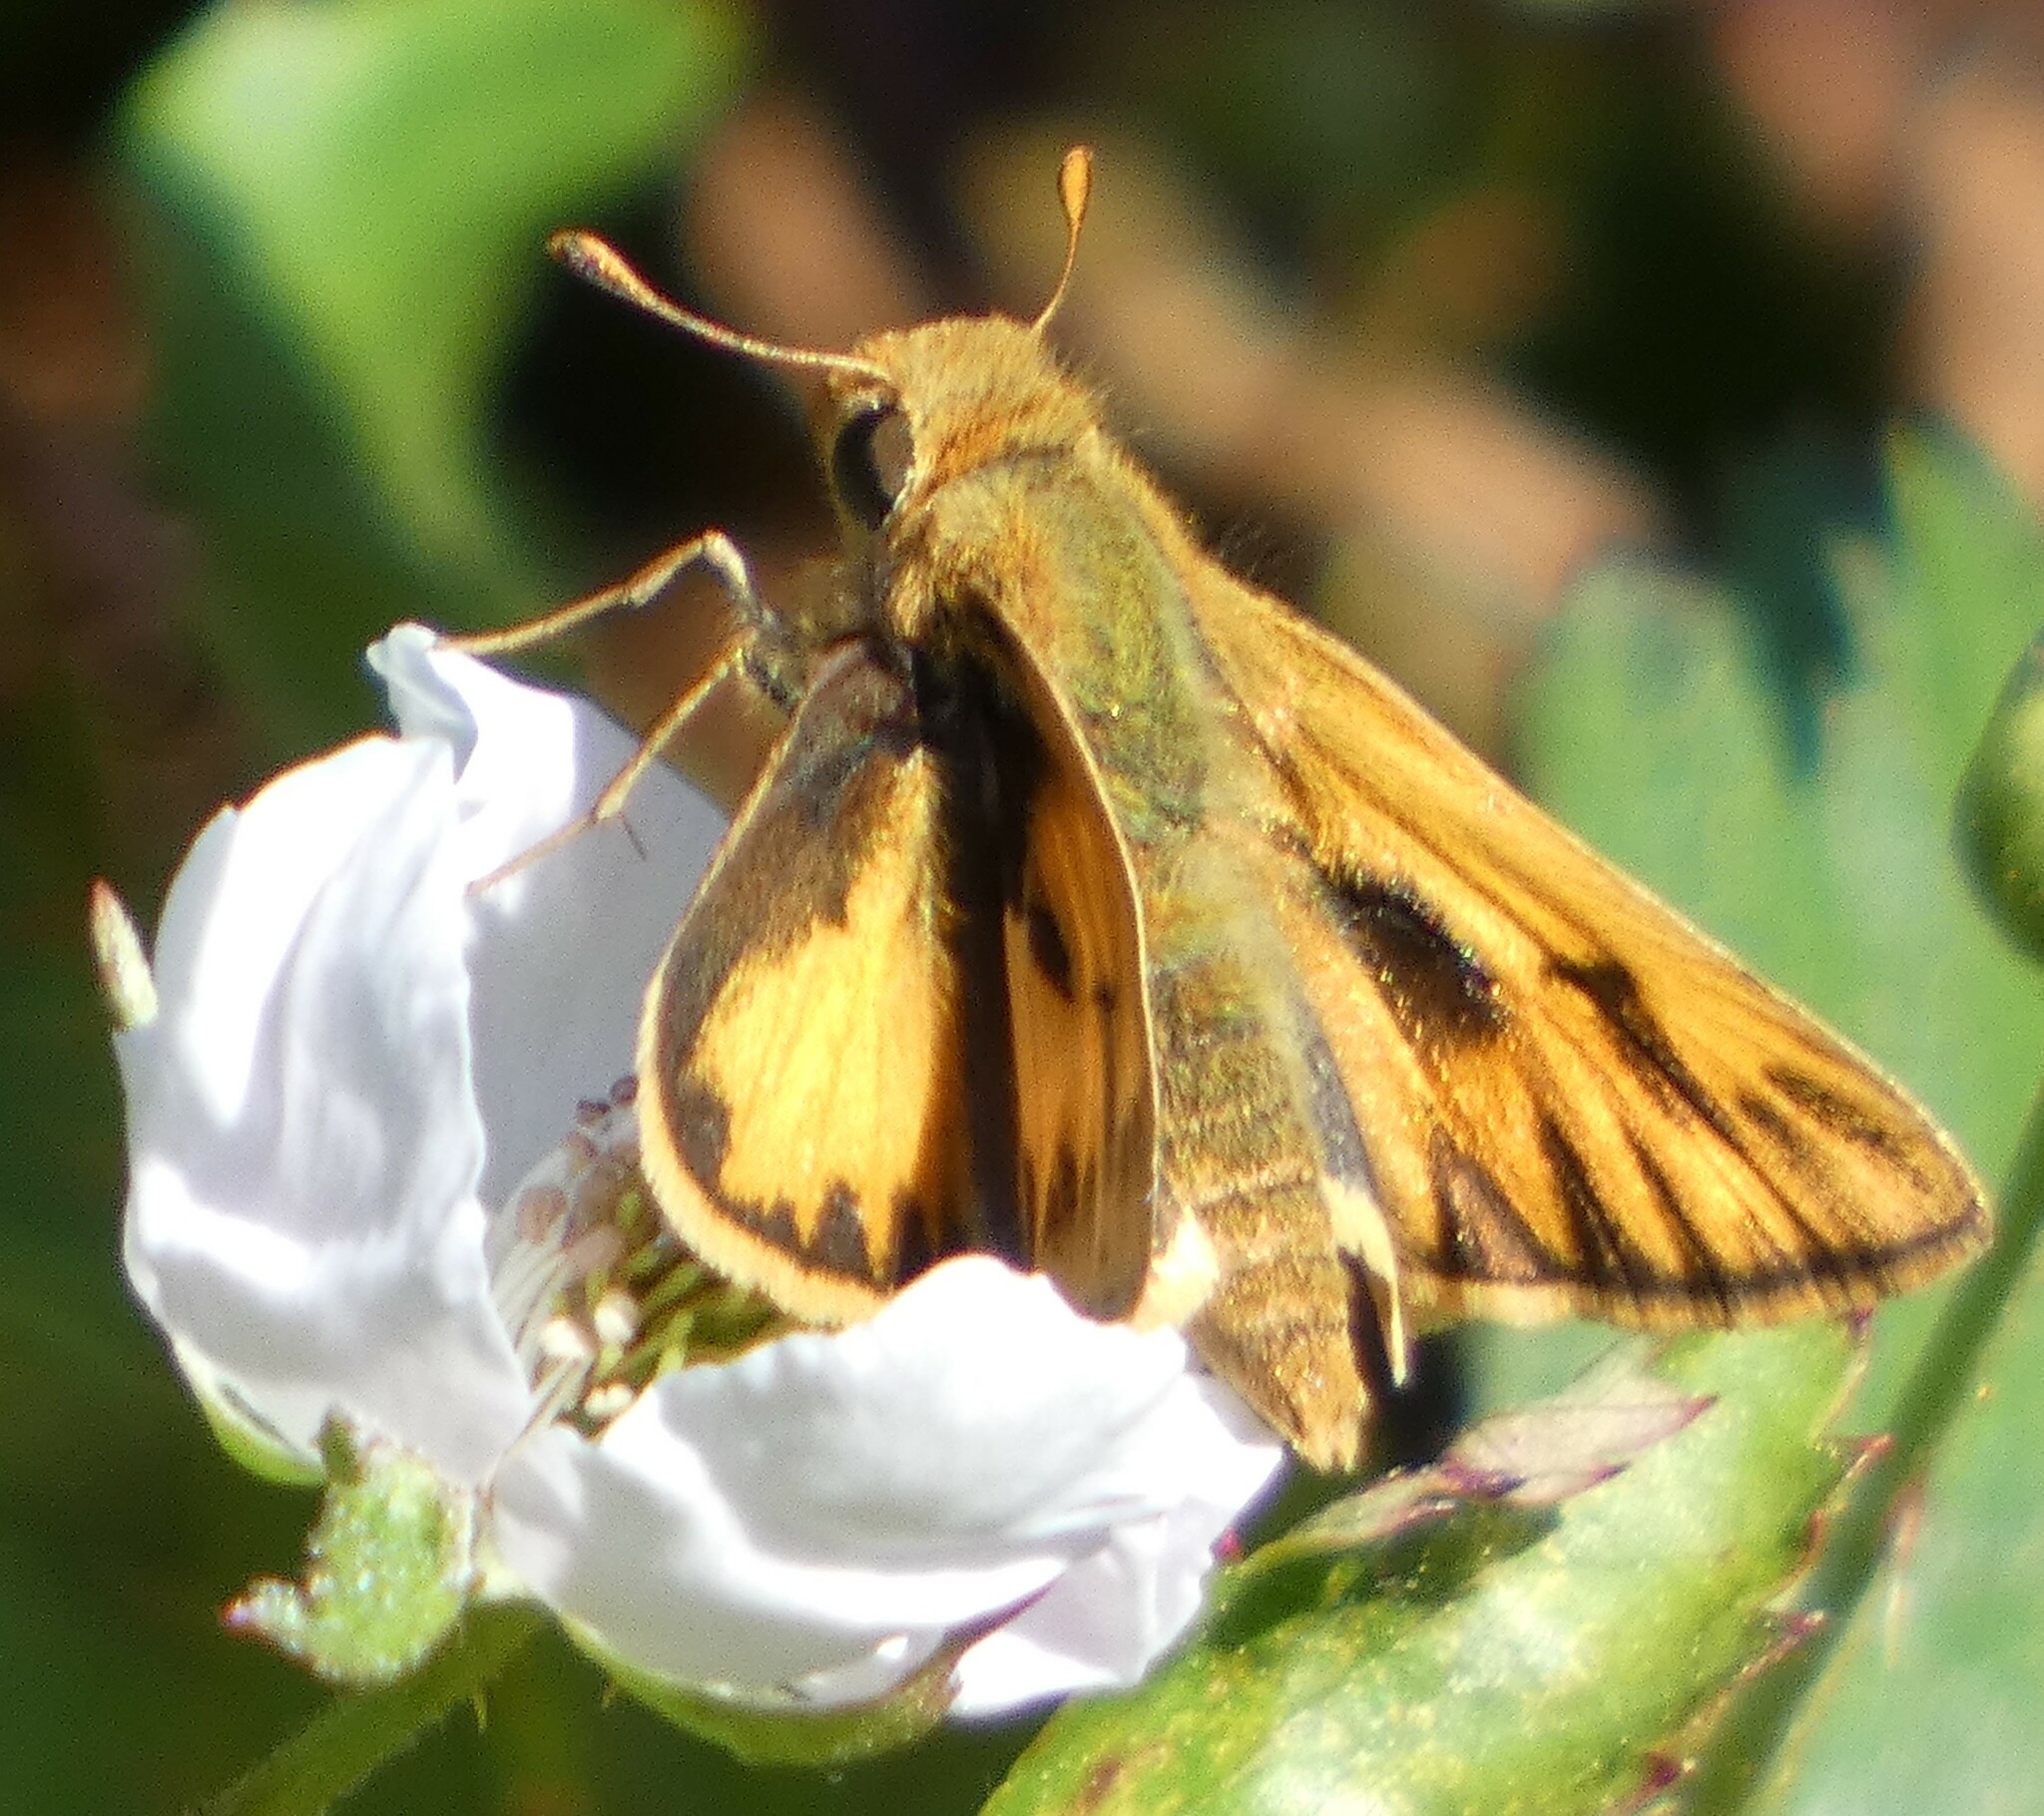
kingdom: Animalia
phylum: Arthropoda
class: Insecta
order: Lepidoptera
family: Hesperiidae
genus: Hylephila
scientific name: Hylephila phyleus
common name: Fiery skipper
